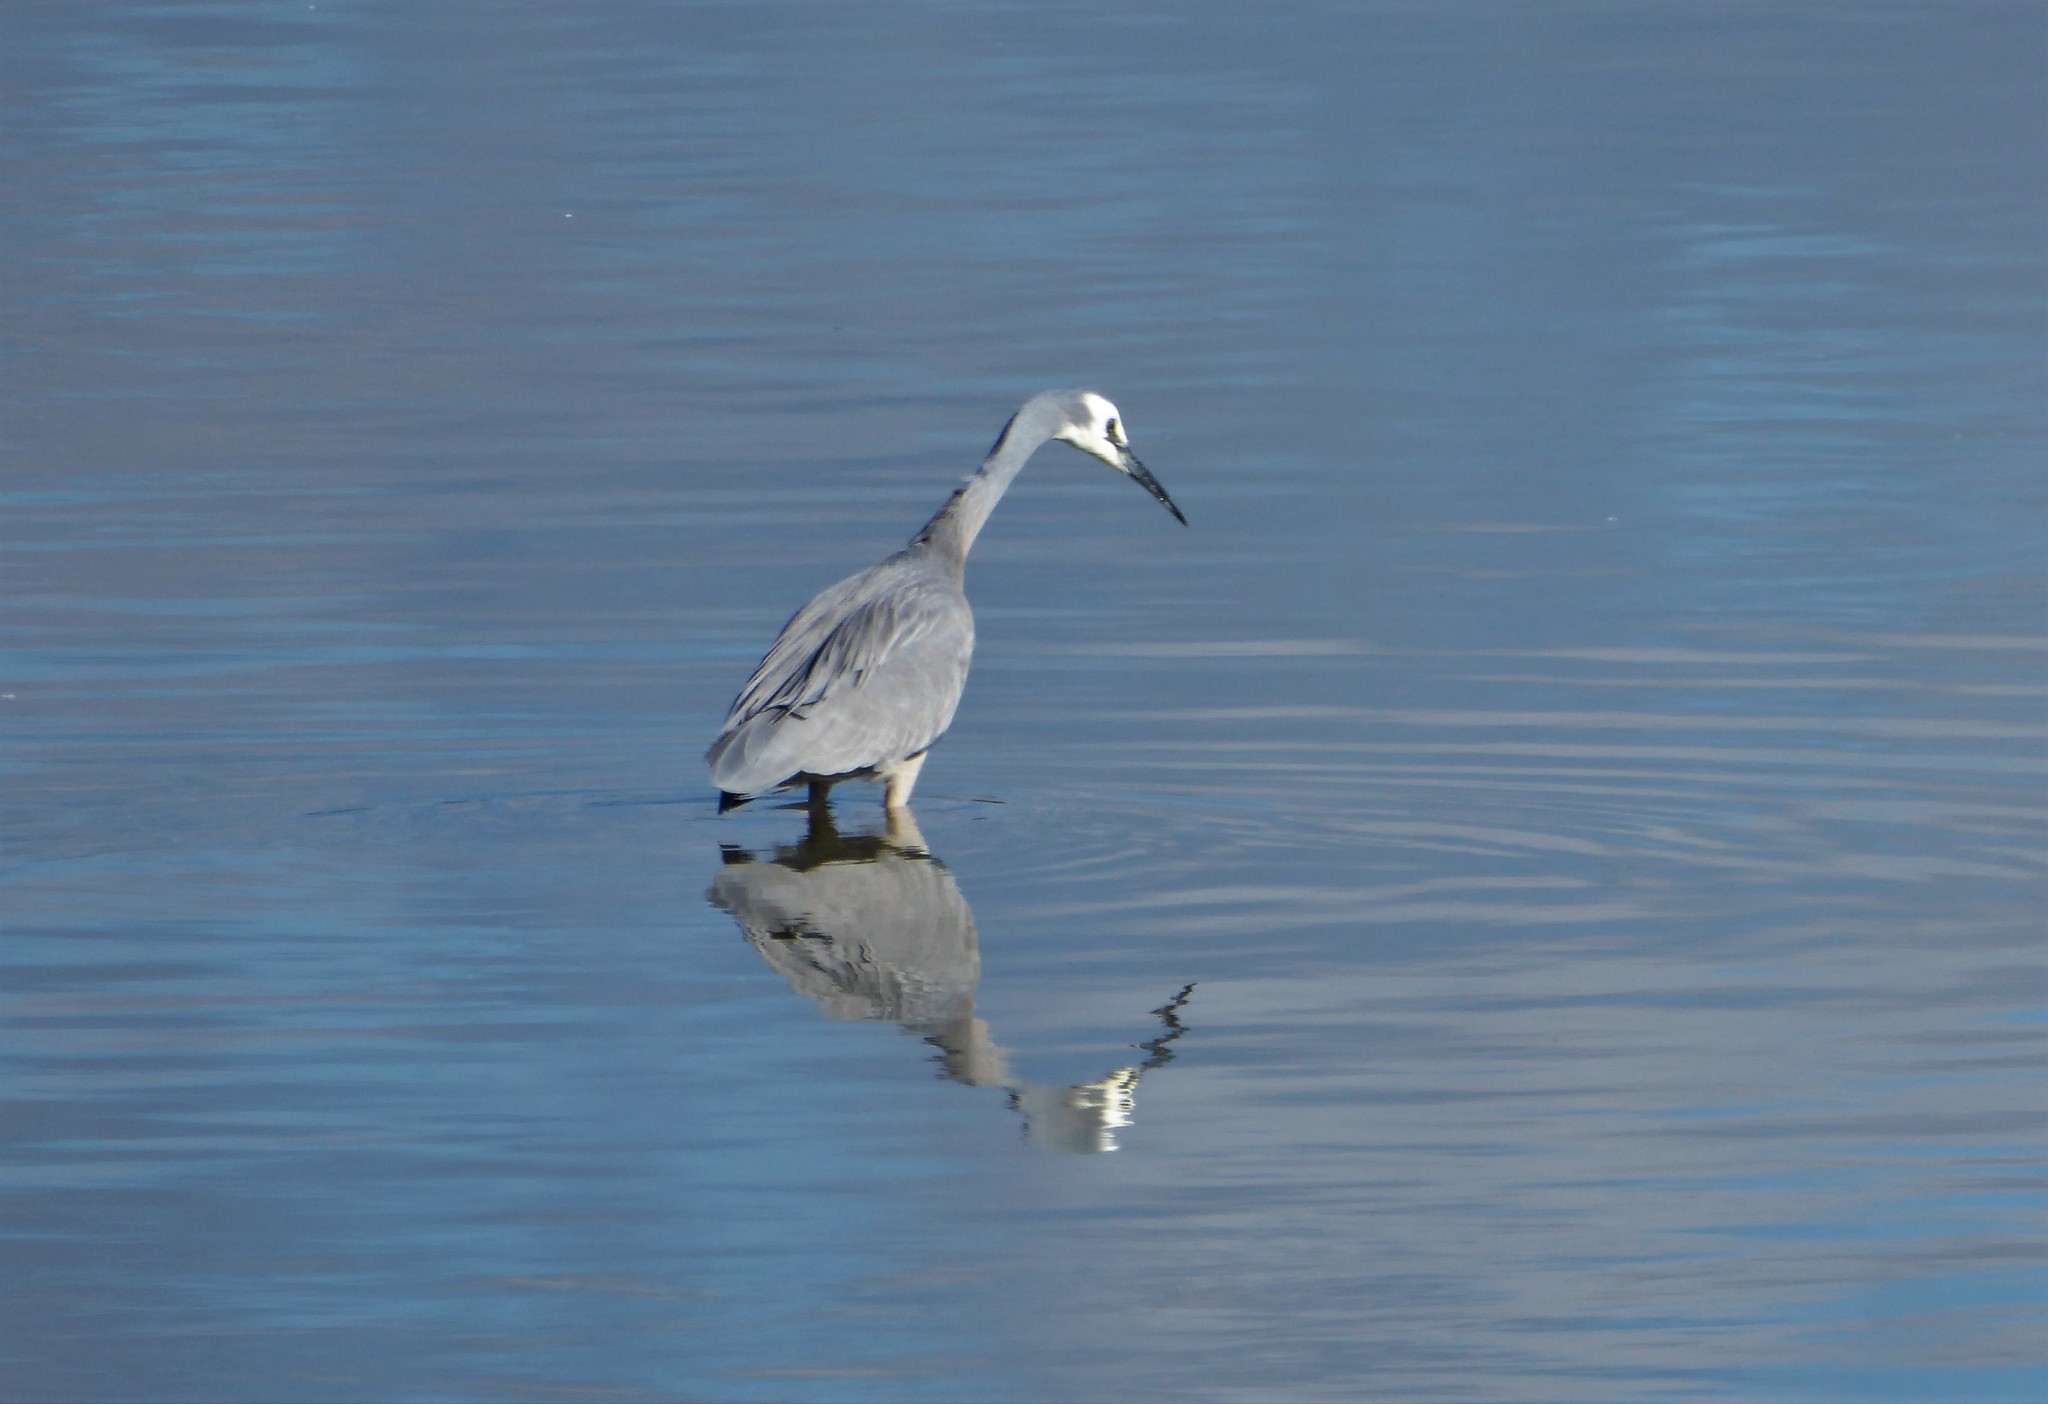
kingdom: Animalia
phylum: Chordata
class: Aves
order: Pelecaniformes
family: Ardeidae
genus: Egretta
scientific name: Egretta novaehollandiae
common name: White-faced heron
